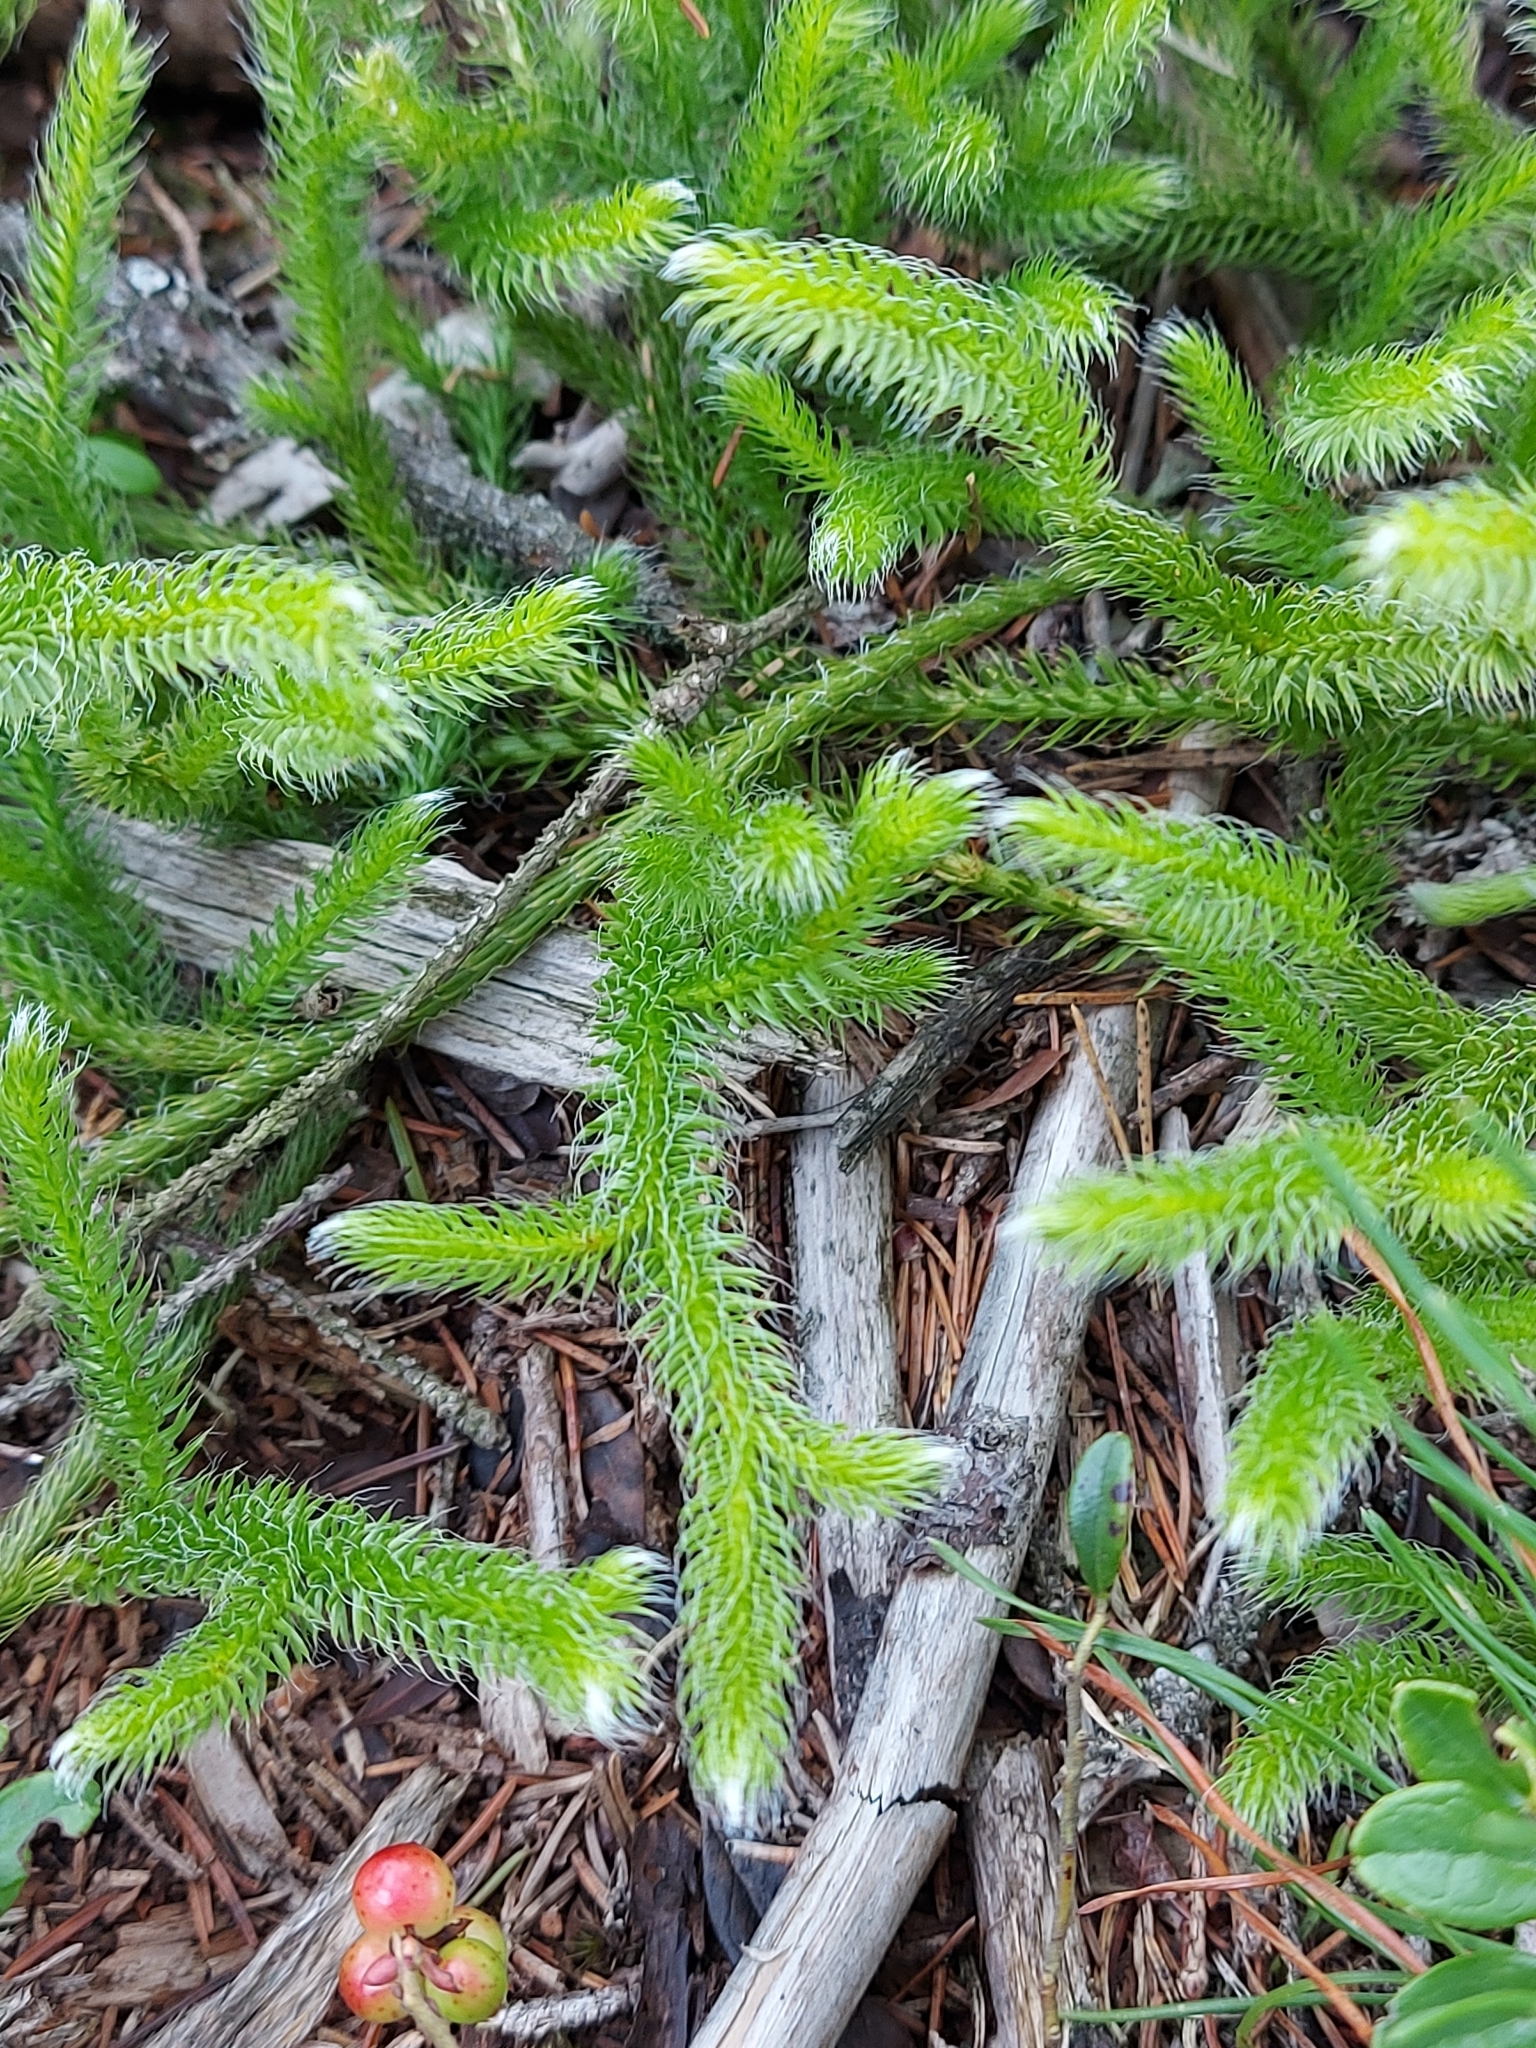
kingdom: Plantae
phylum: Tracheophyta
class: Lycopodiopsida
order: Lycopodiales
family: Lycopodiaceae
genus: Lycopodium
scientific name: Lycopodium clavatum
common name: Stag's-horn clubmoss
